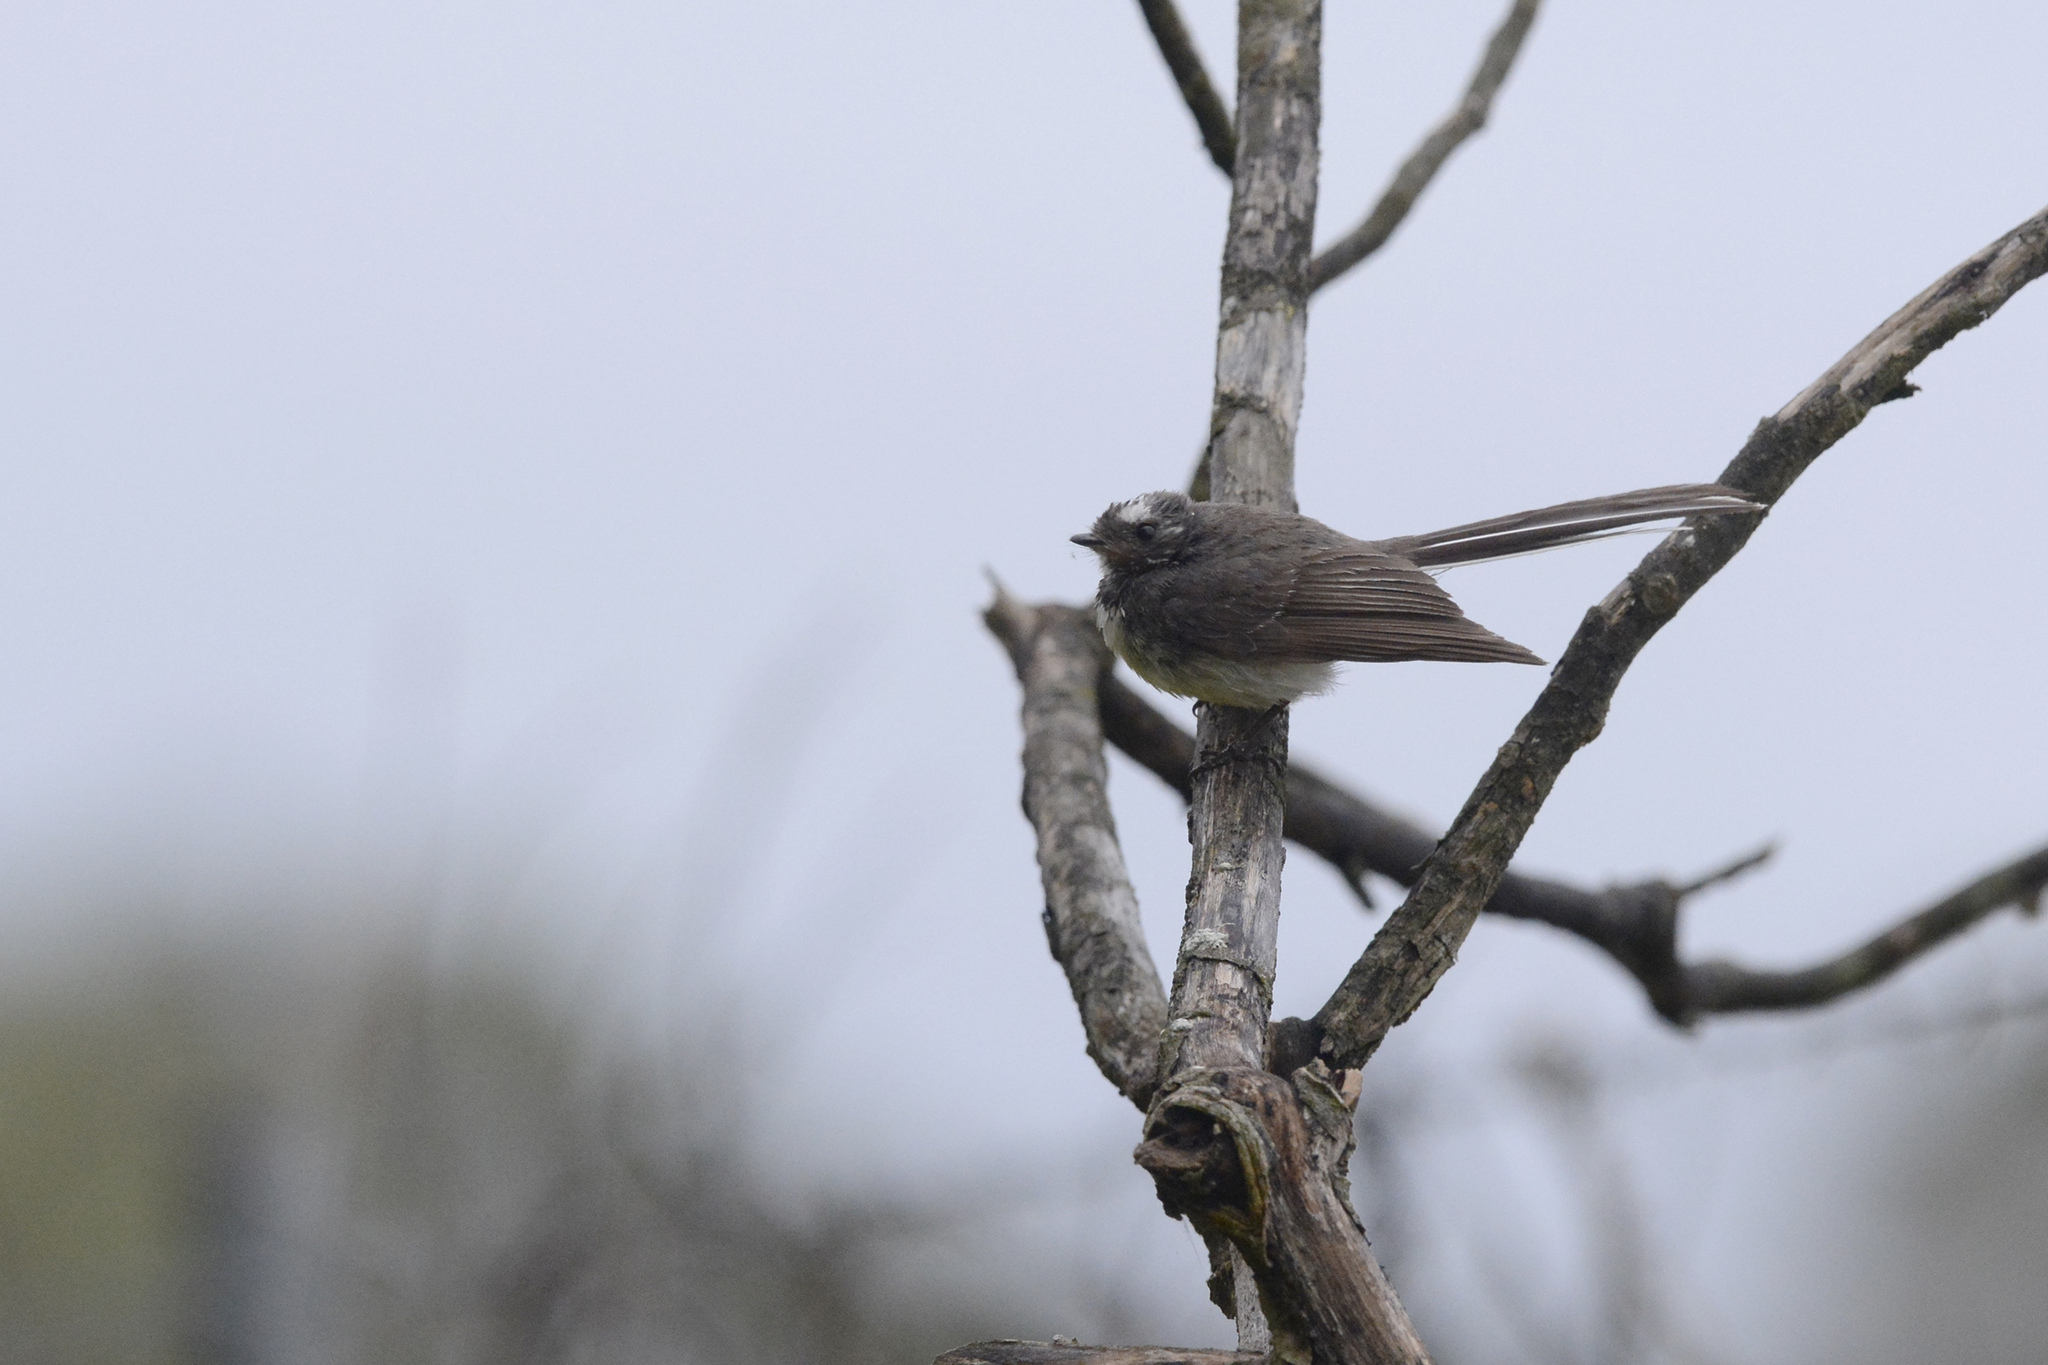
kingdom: Animalia
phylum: Chordata
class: Aves
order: Passeriformes
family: Rhipiduridae
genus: Rhipidura
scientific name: Rhipidura albiscapa
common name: Grey fantail
